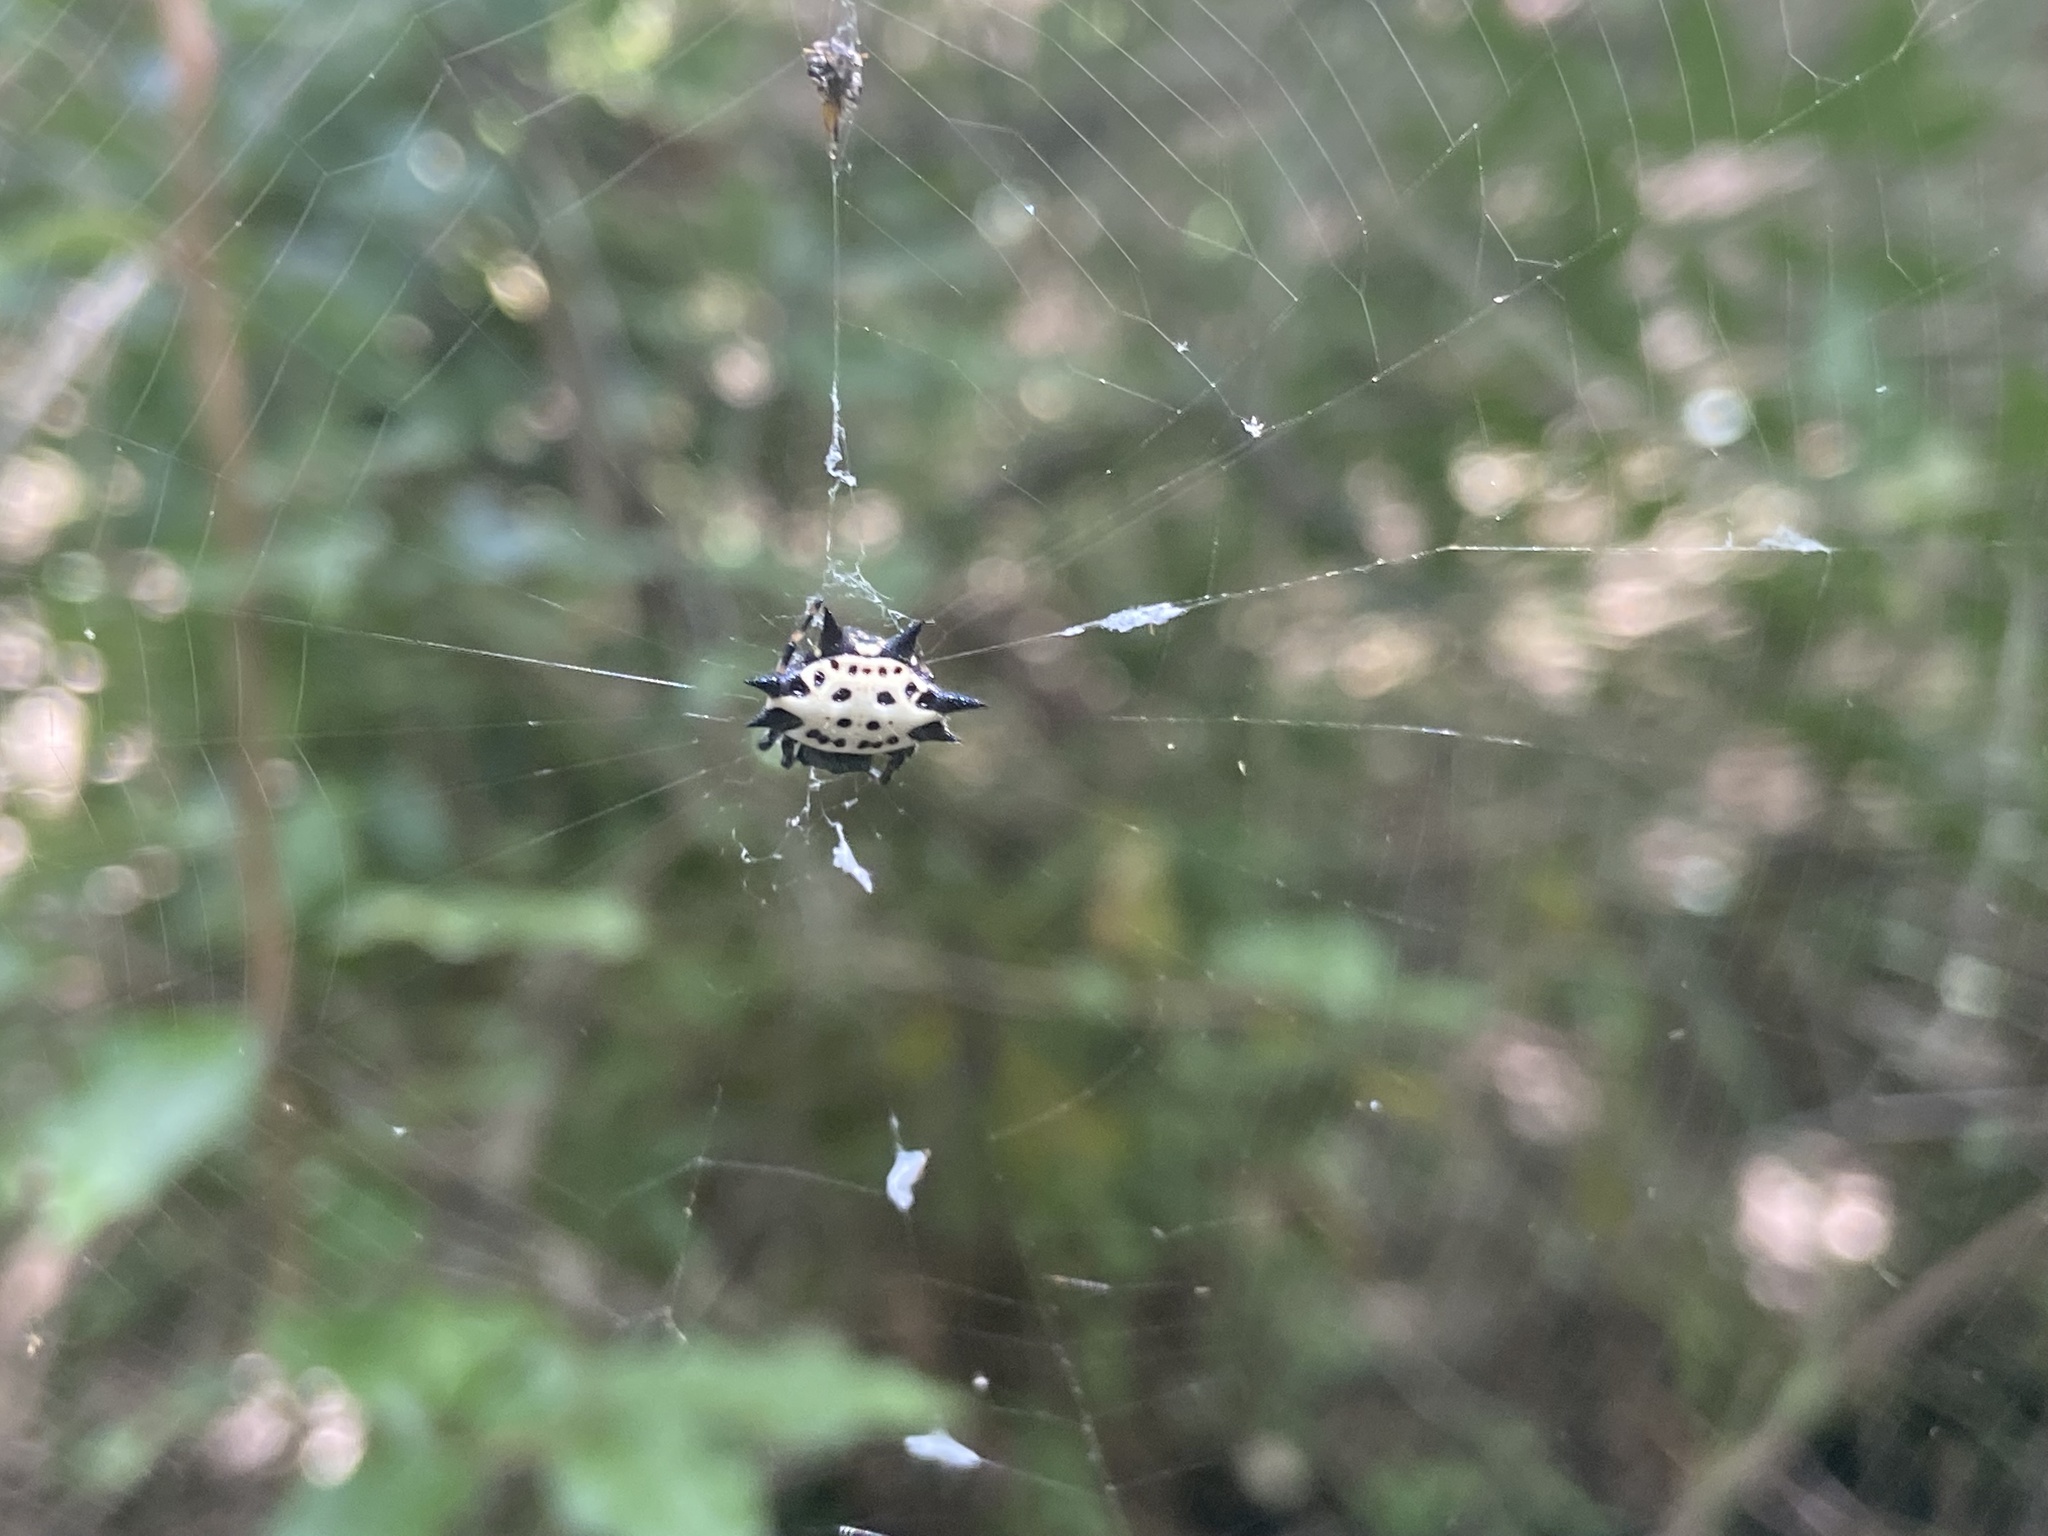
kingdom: Animalia
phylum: Arthropoda
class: Arachnida
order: Araneae
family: Araneidae
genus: Gasteracantha
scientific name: Gasteracantha cancriformis
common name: Orb weavers
